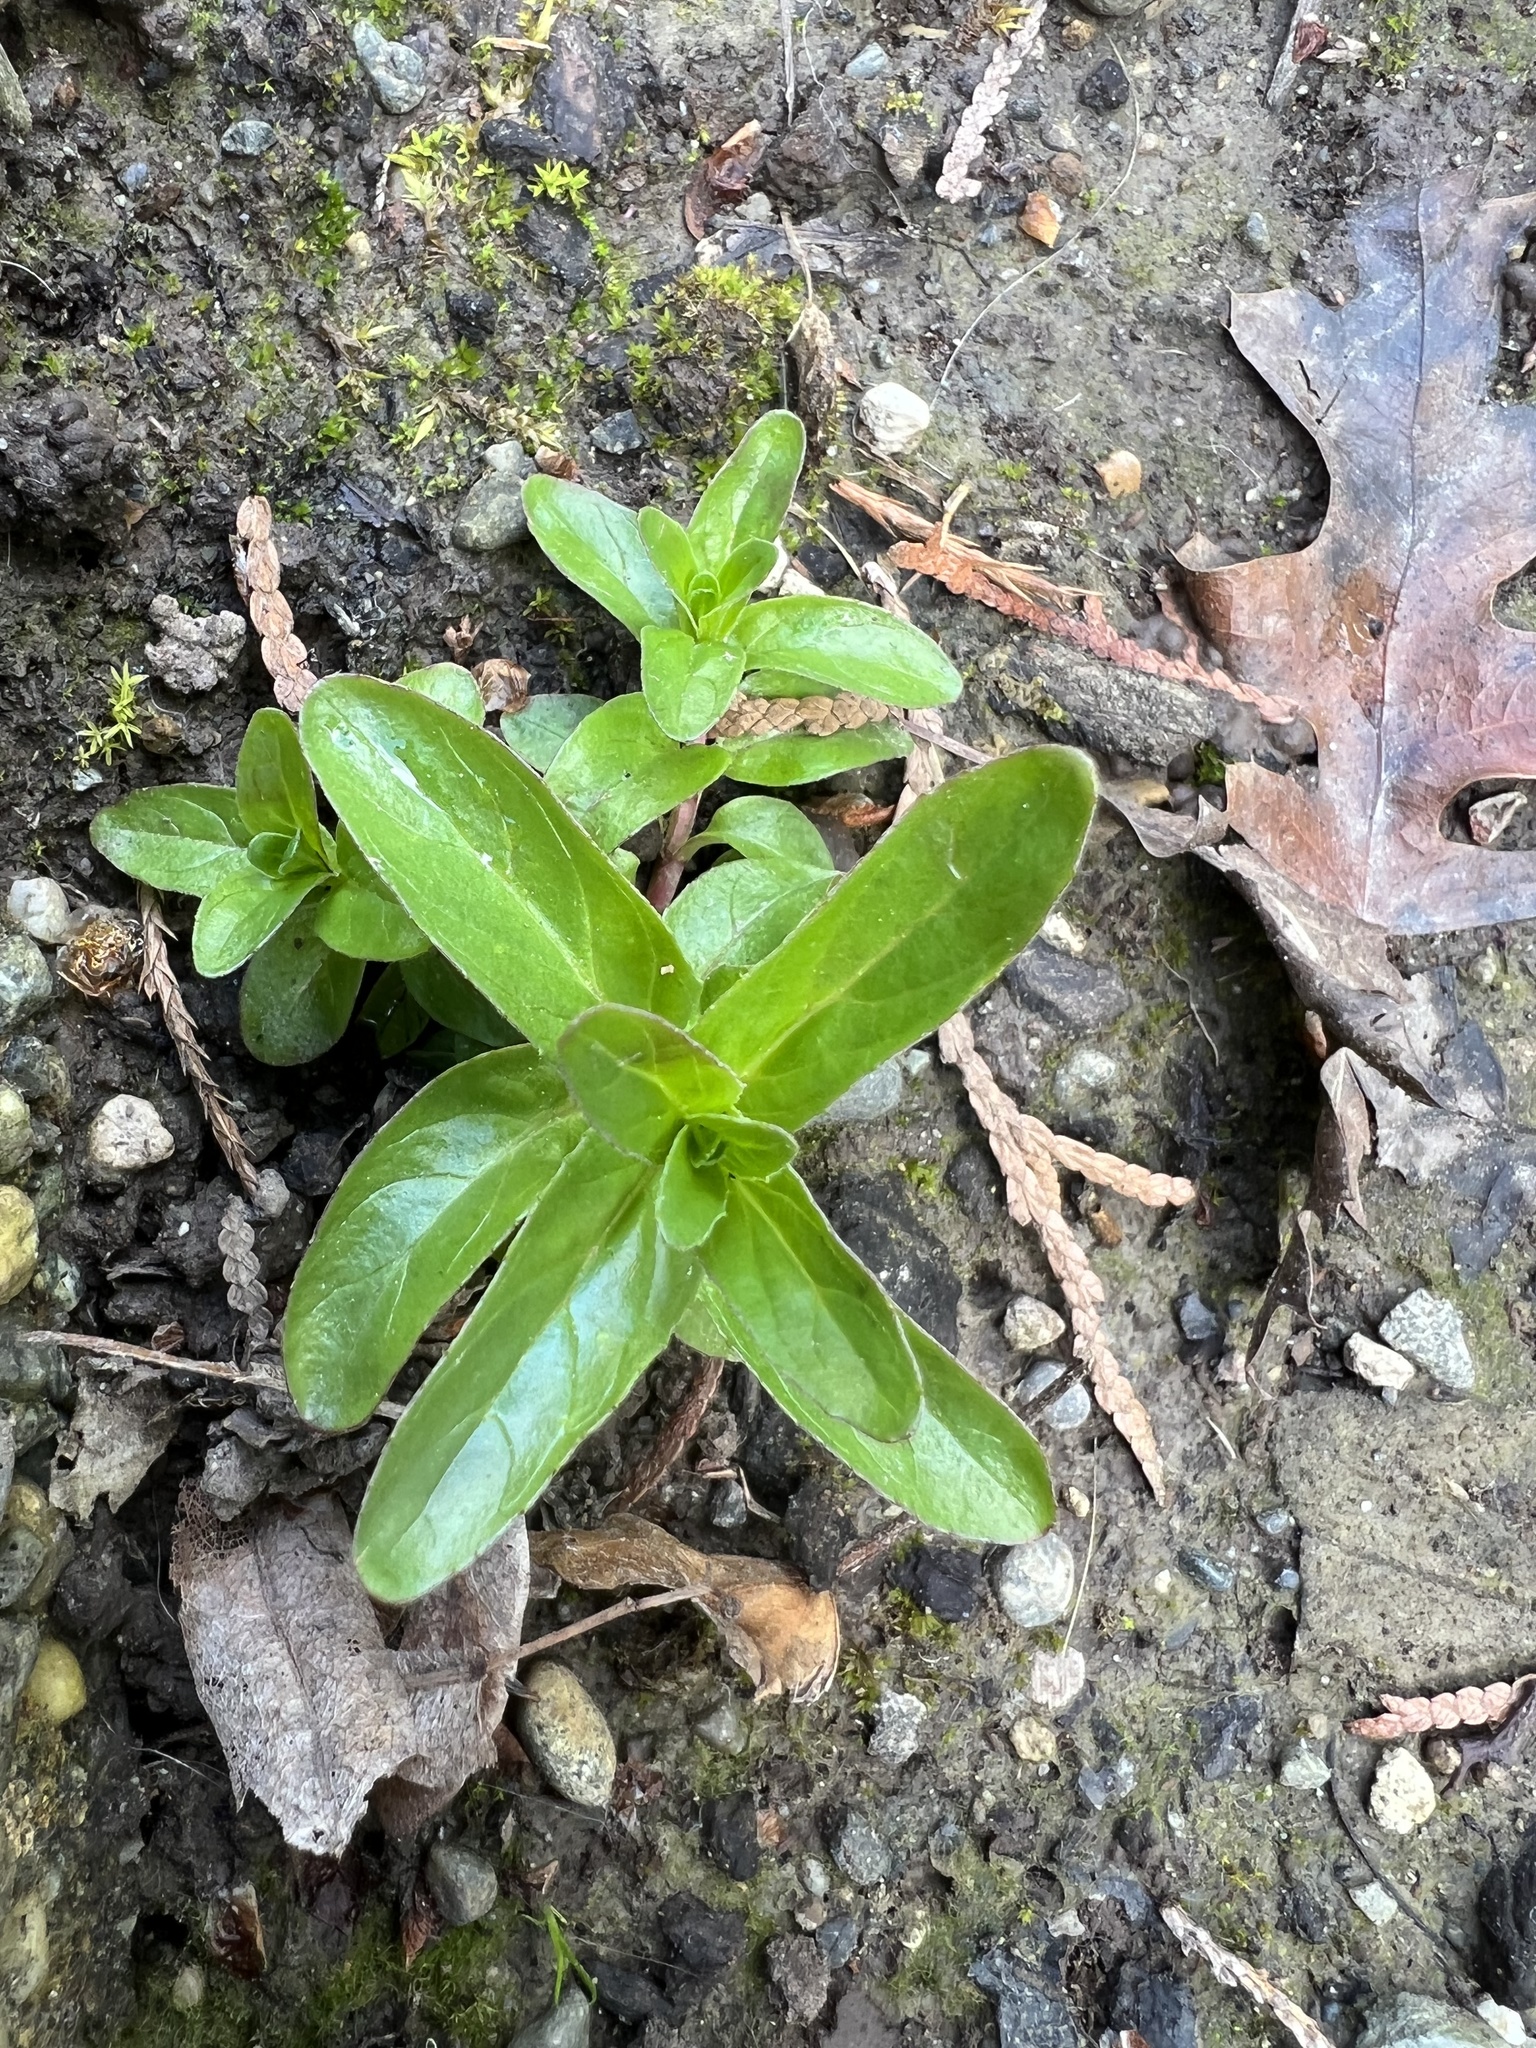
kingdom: Plantae
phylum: Tracheophyta
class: Magnoliopsida
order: Myrtales
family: Onagraceae
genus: Epilobium
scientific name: Epilobium ciliatum
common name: American willowherb
